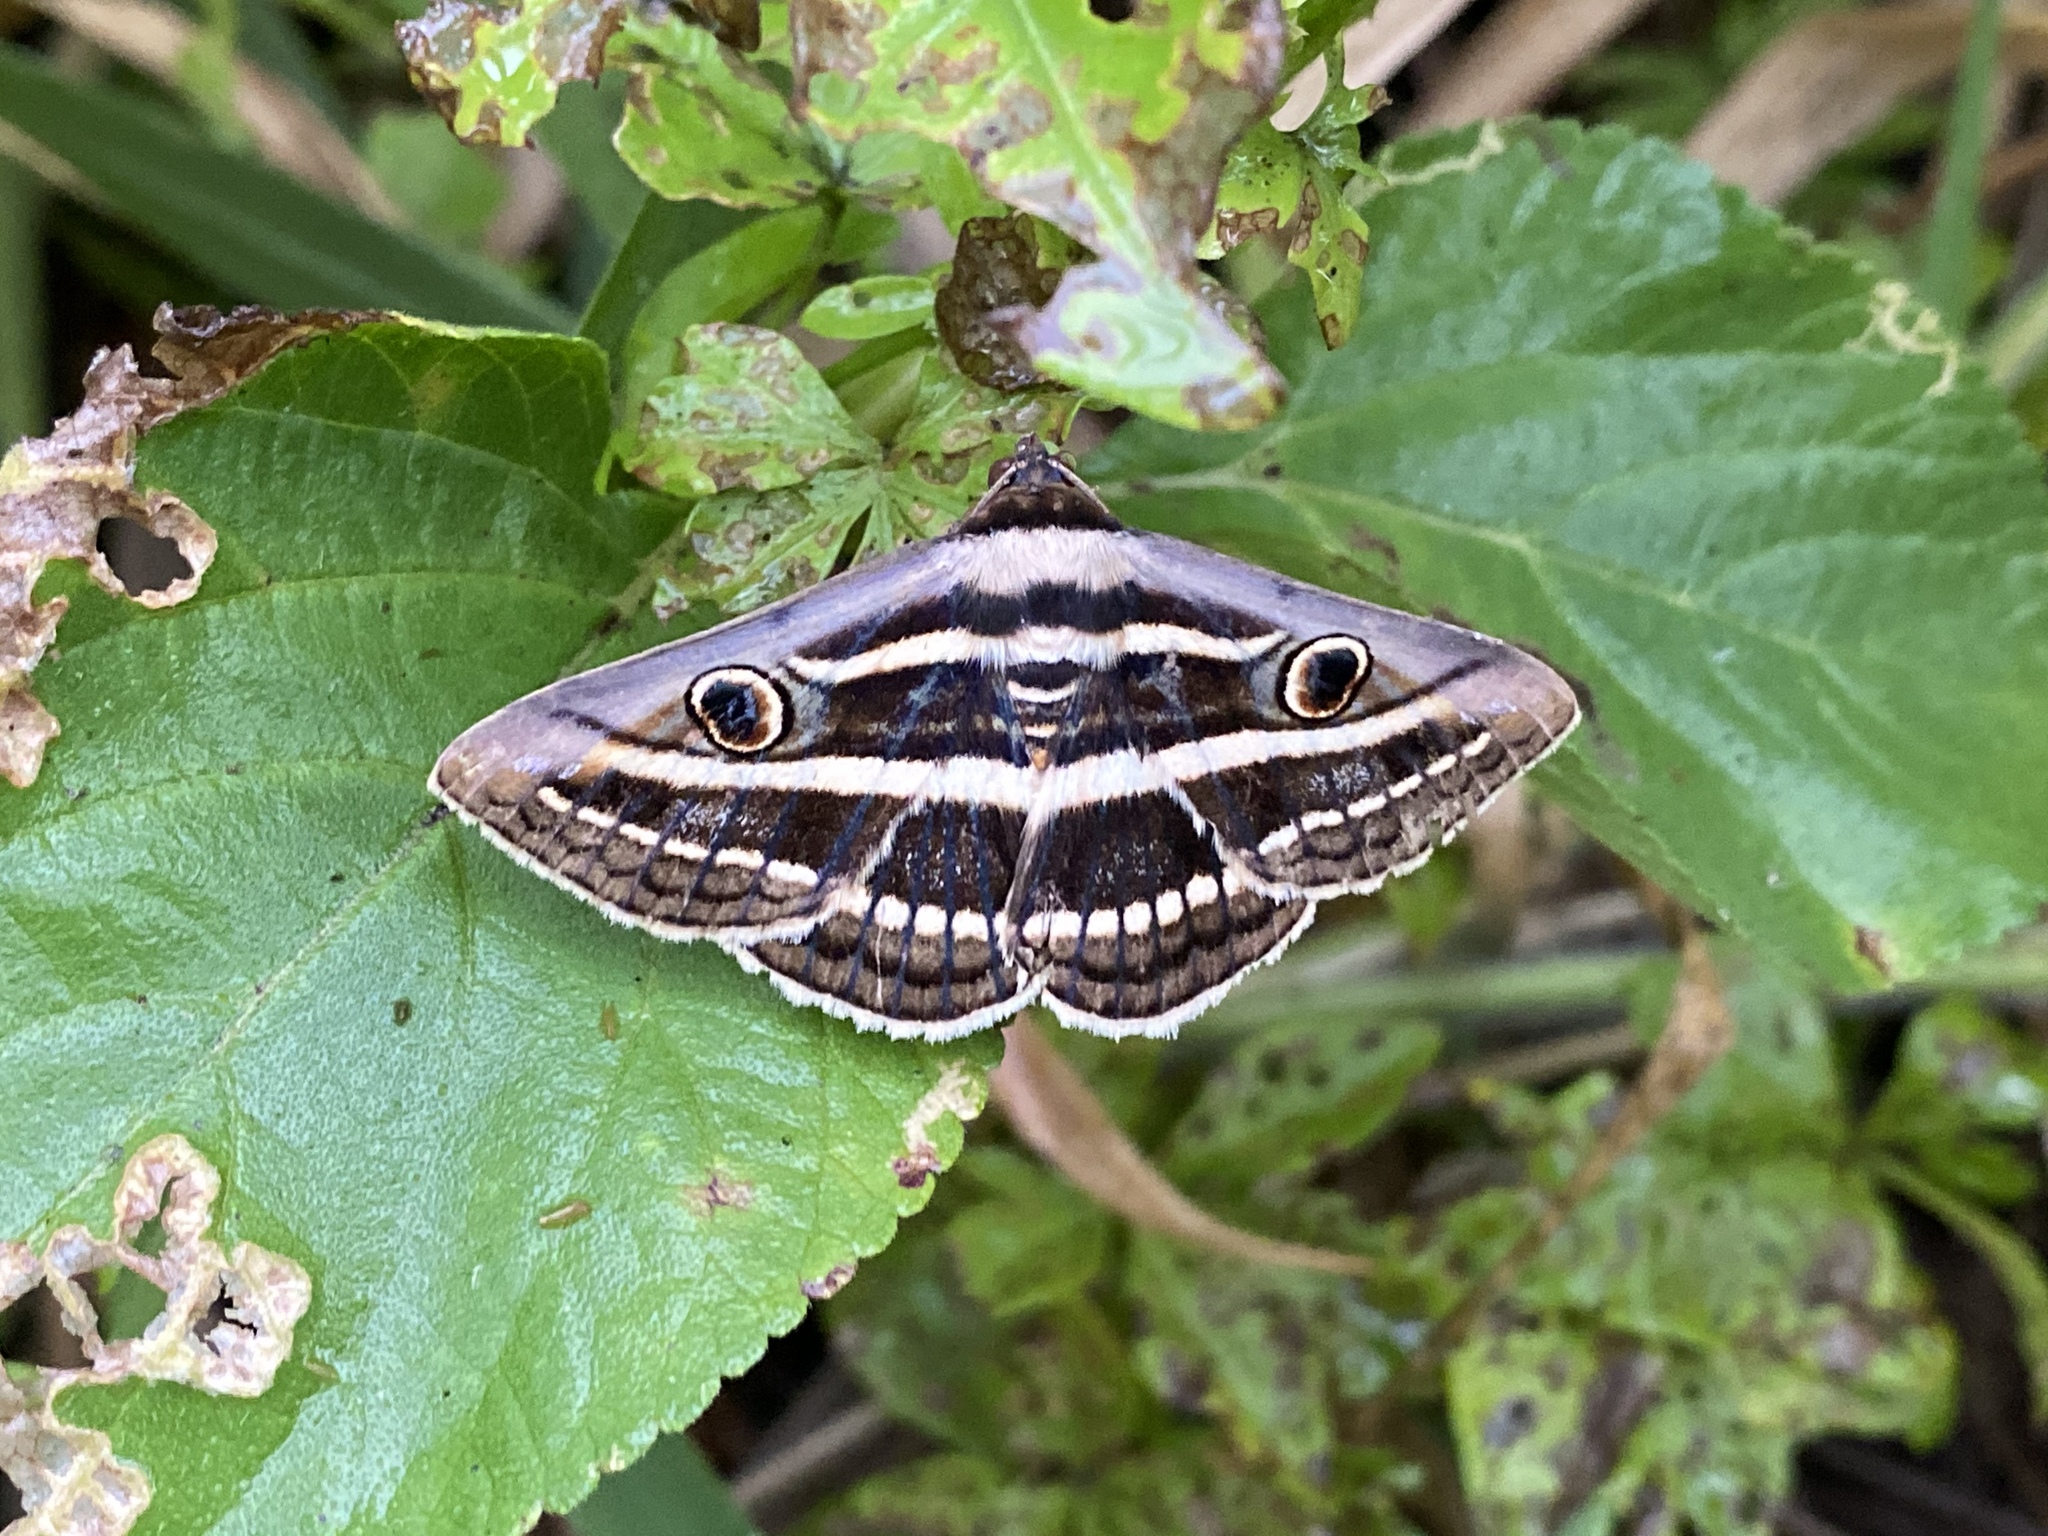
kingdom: Animalia
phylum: Arthropoda
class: Insecta
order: Lepidoptera
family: Erebidae
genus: Donuca
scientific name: Donuca orbigera
